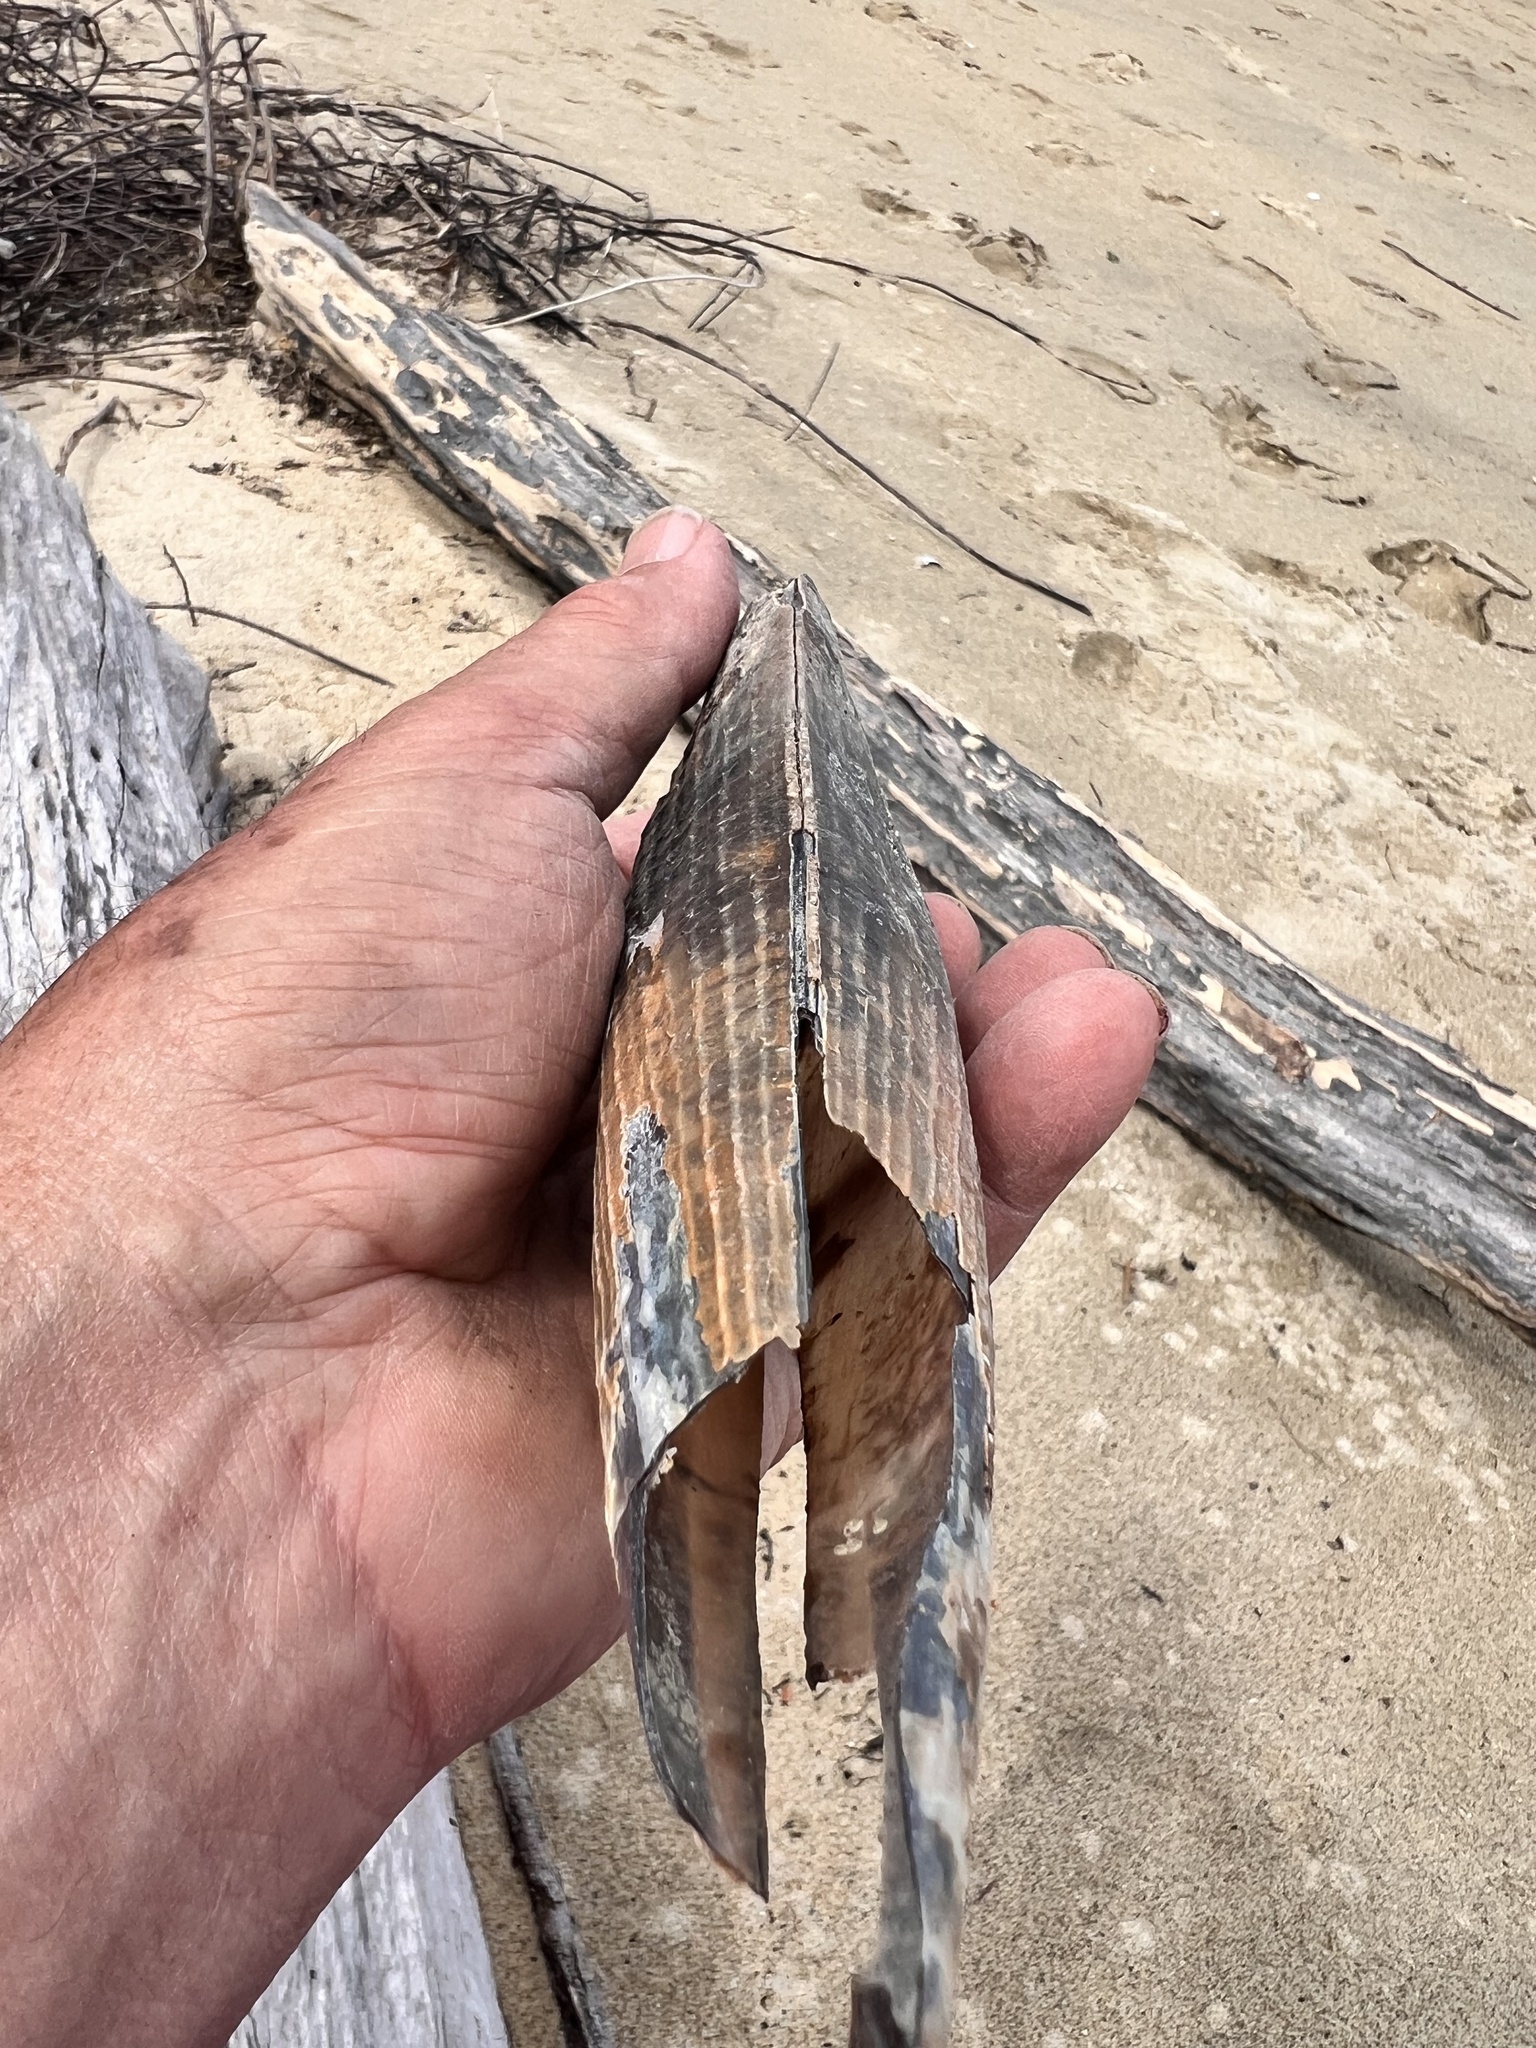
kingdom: Animalia
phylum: Mollusca
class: Bivalvia
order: Ostreida
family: Pinnidae
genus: Atrina
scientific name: Atrina zelandica
